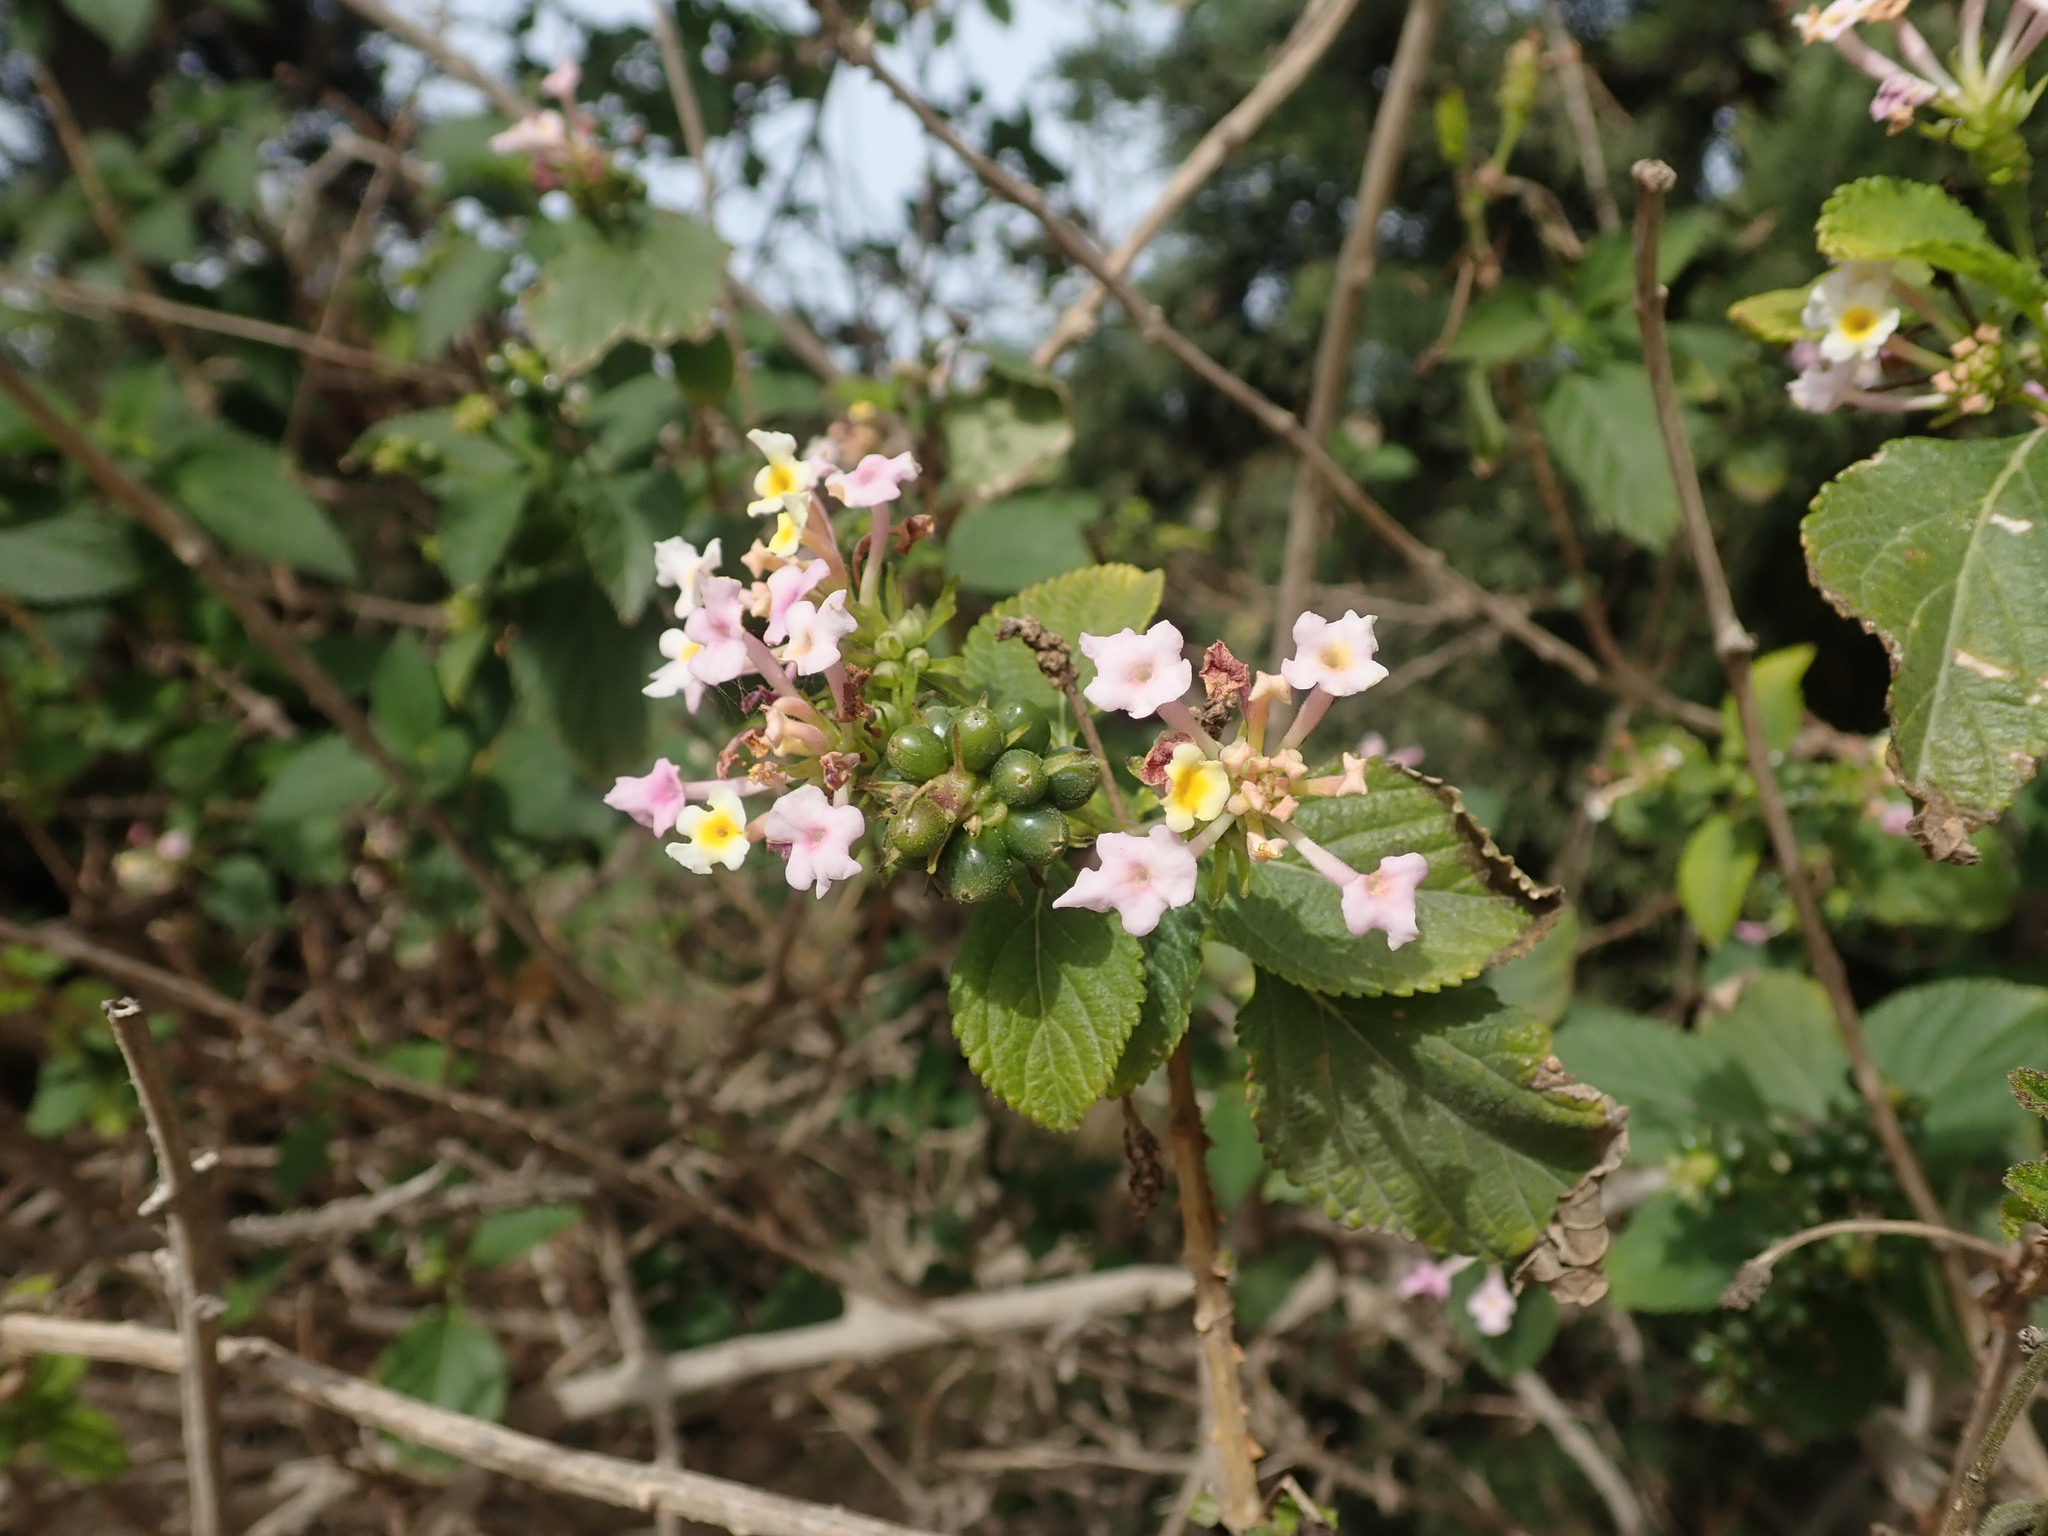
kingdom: Plantae
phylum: Tracheophyta
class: Magnoliopsida
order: Lamiales
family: Verbenaceae
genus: Lantana
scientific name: Lantana camara
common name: Lantana
